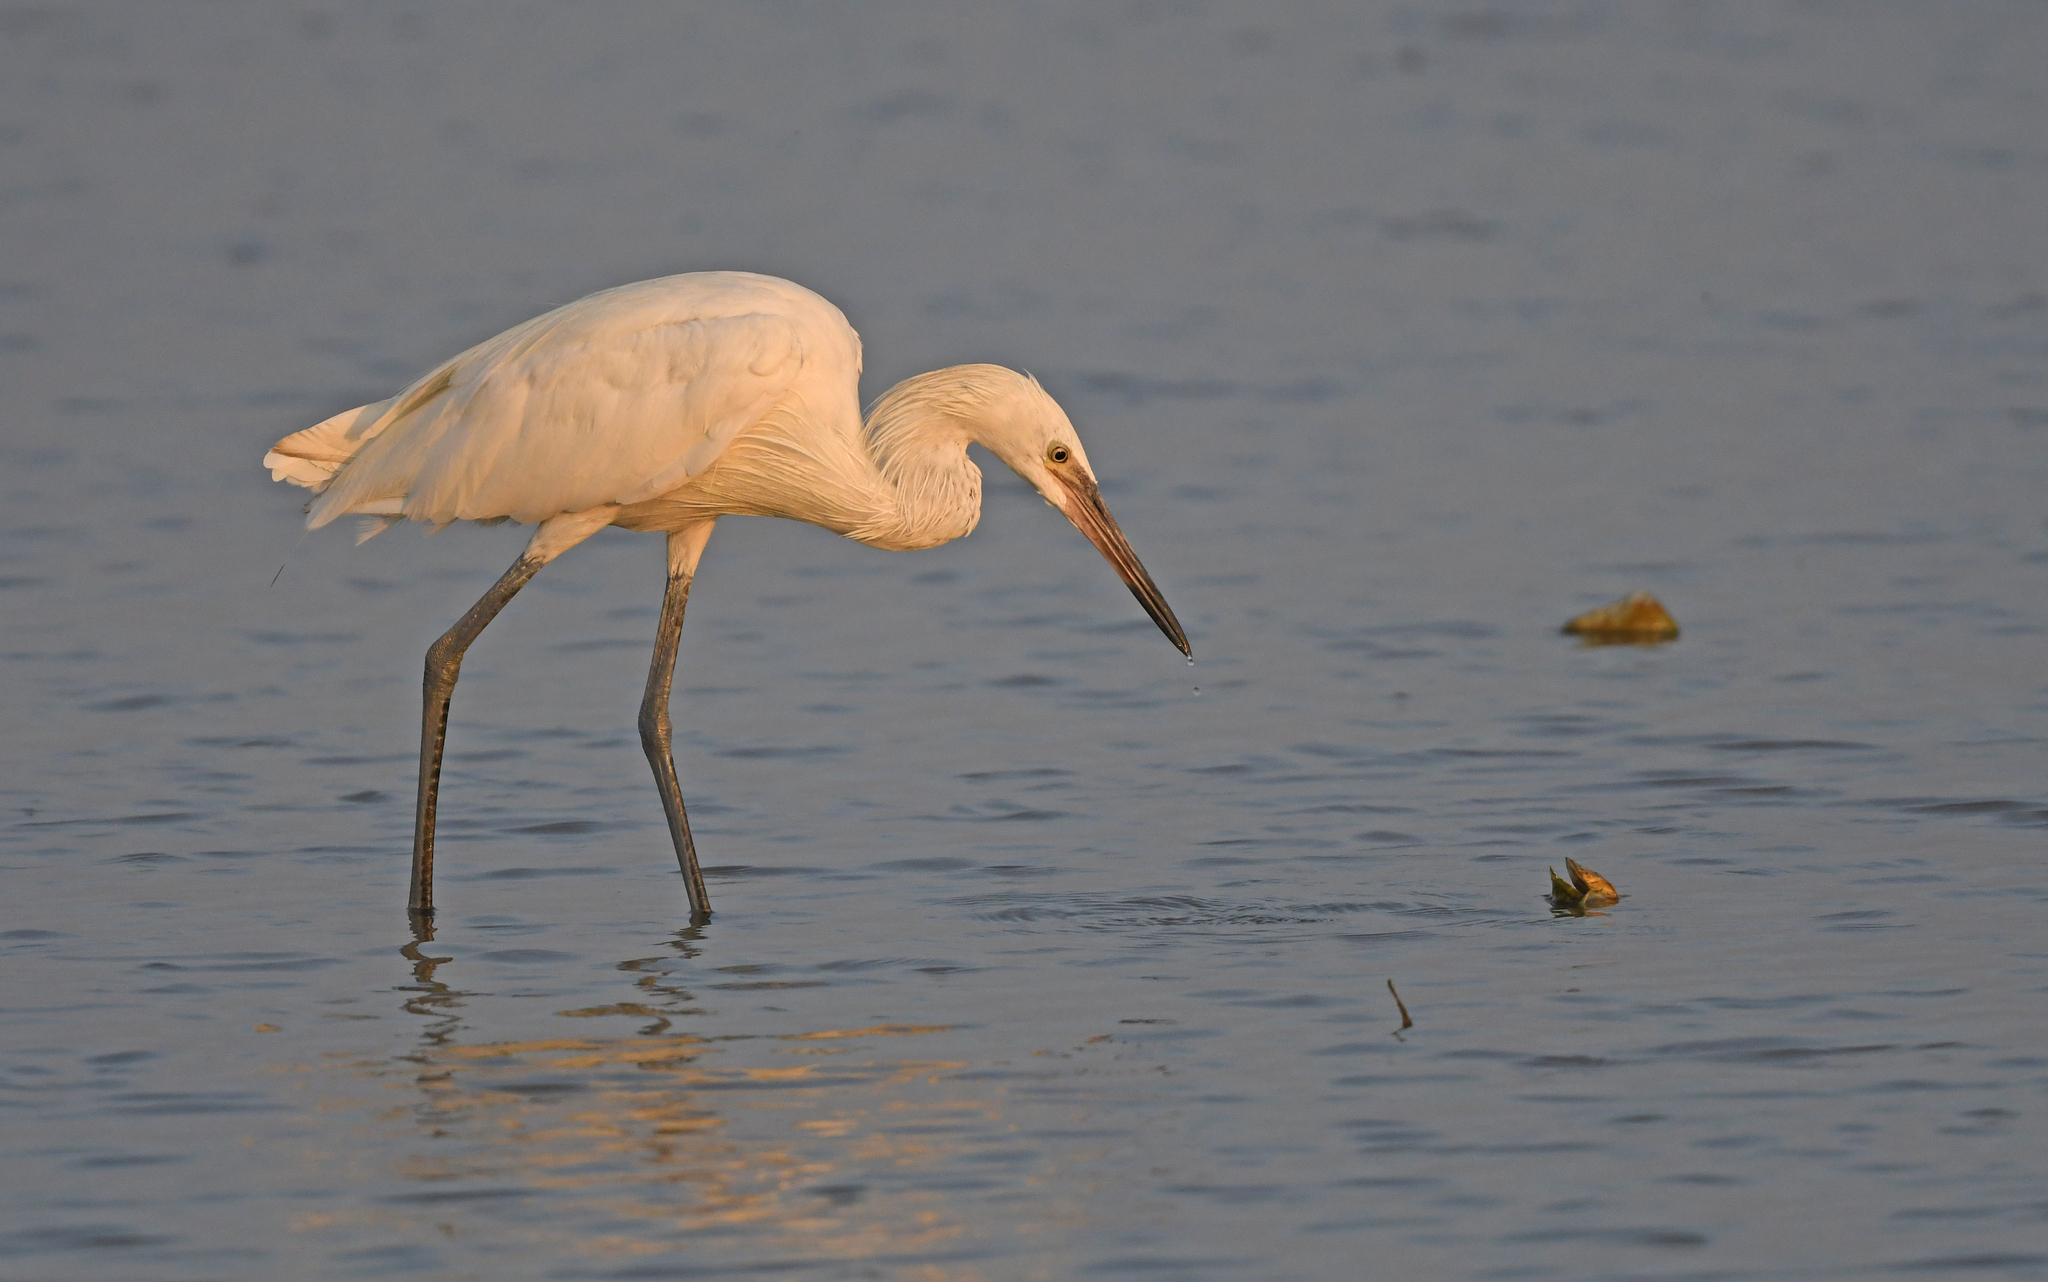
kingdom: Animalia
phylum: Chordata
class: Aves
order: Pelecaniformes
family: Ardeidae
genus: Egretta
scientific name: Egretta rufescens
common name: Reddish egret
